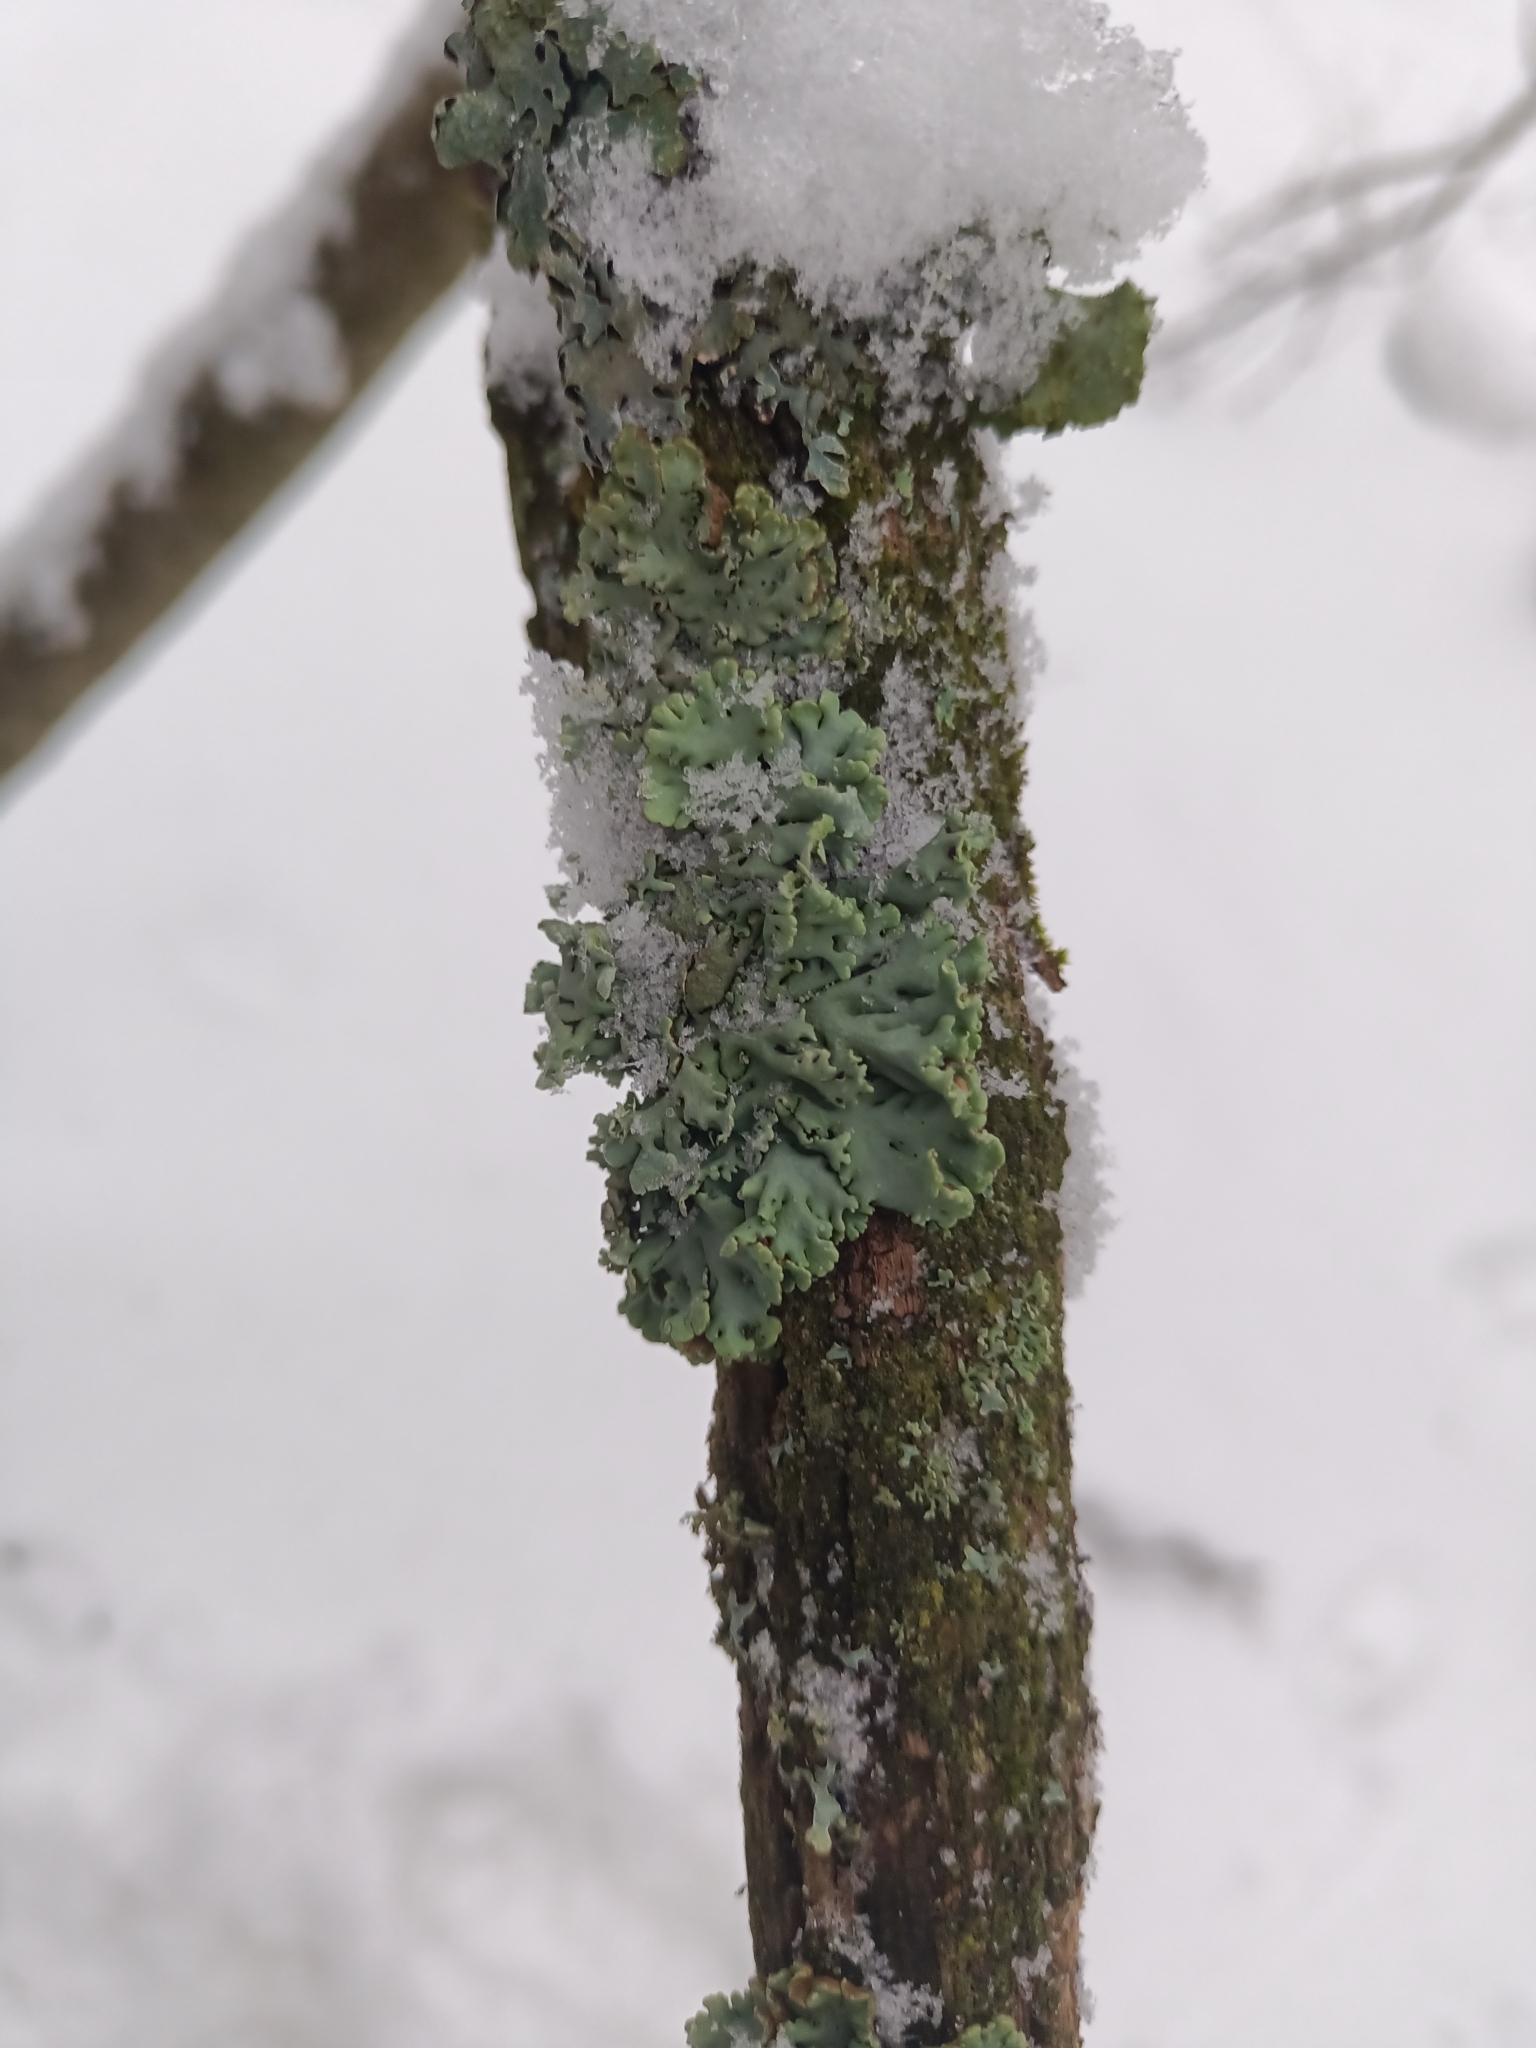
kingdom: Fungi
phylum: Ascomycota
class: Lecanoromycetes
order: Lecanorales
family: Parmeliaceae
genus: Hypogymnia
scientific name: Hypogymnia physodes
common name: Dark crottle
